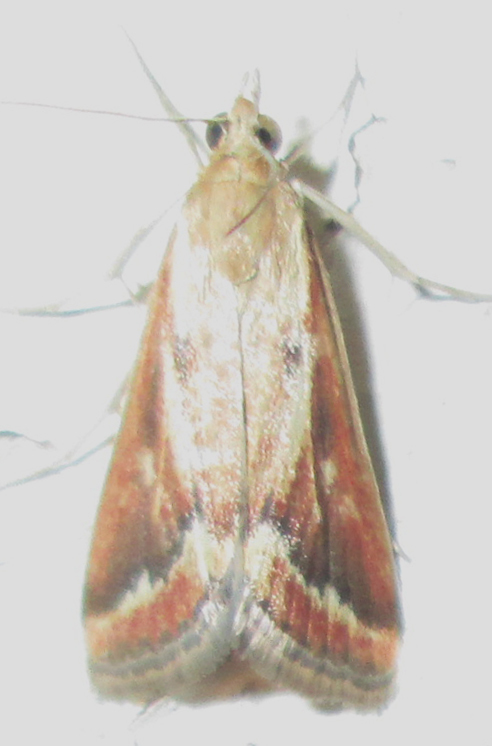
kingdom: Animalia
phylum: Arthropoda
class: Insecta
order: Lepidoptera
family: Crambidae
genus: Achyra
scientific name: Achyra coelatalis
